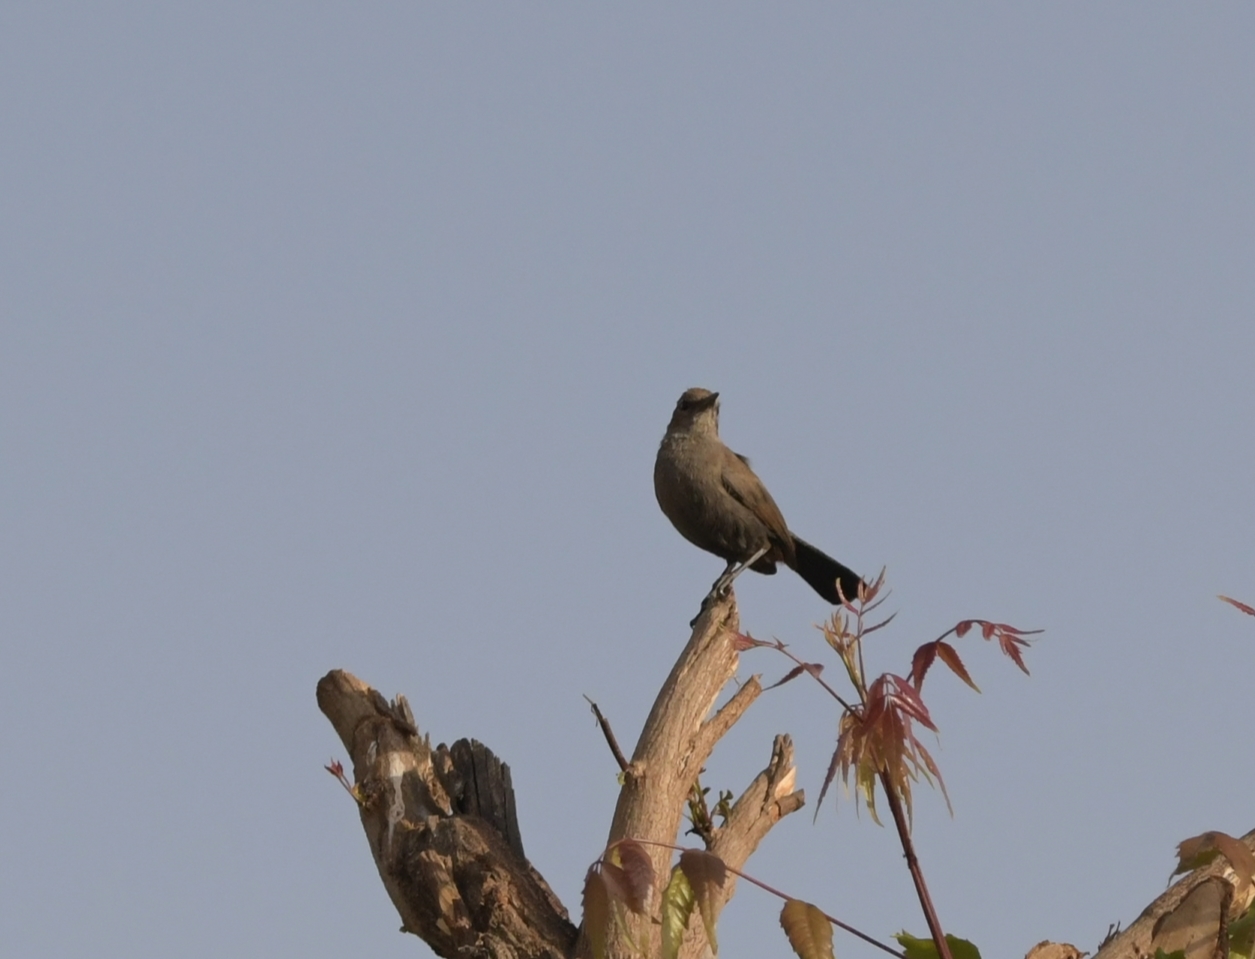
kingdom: Animalia
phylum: Chordata
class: Aves
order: Passeriformes
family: Muscicapidae
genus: Saxicoloides
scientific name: Saxicoloides fulicatus
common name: Indian robin
